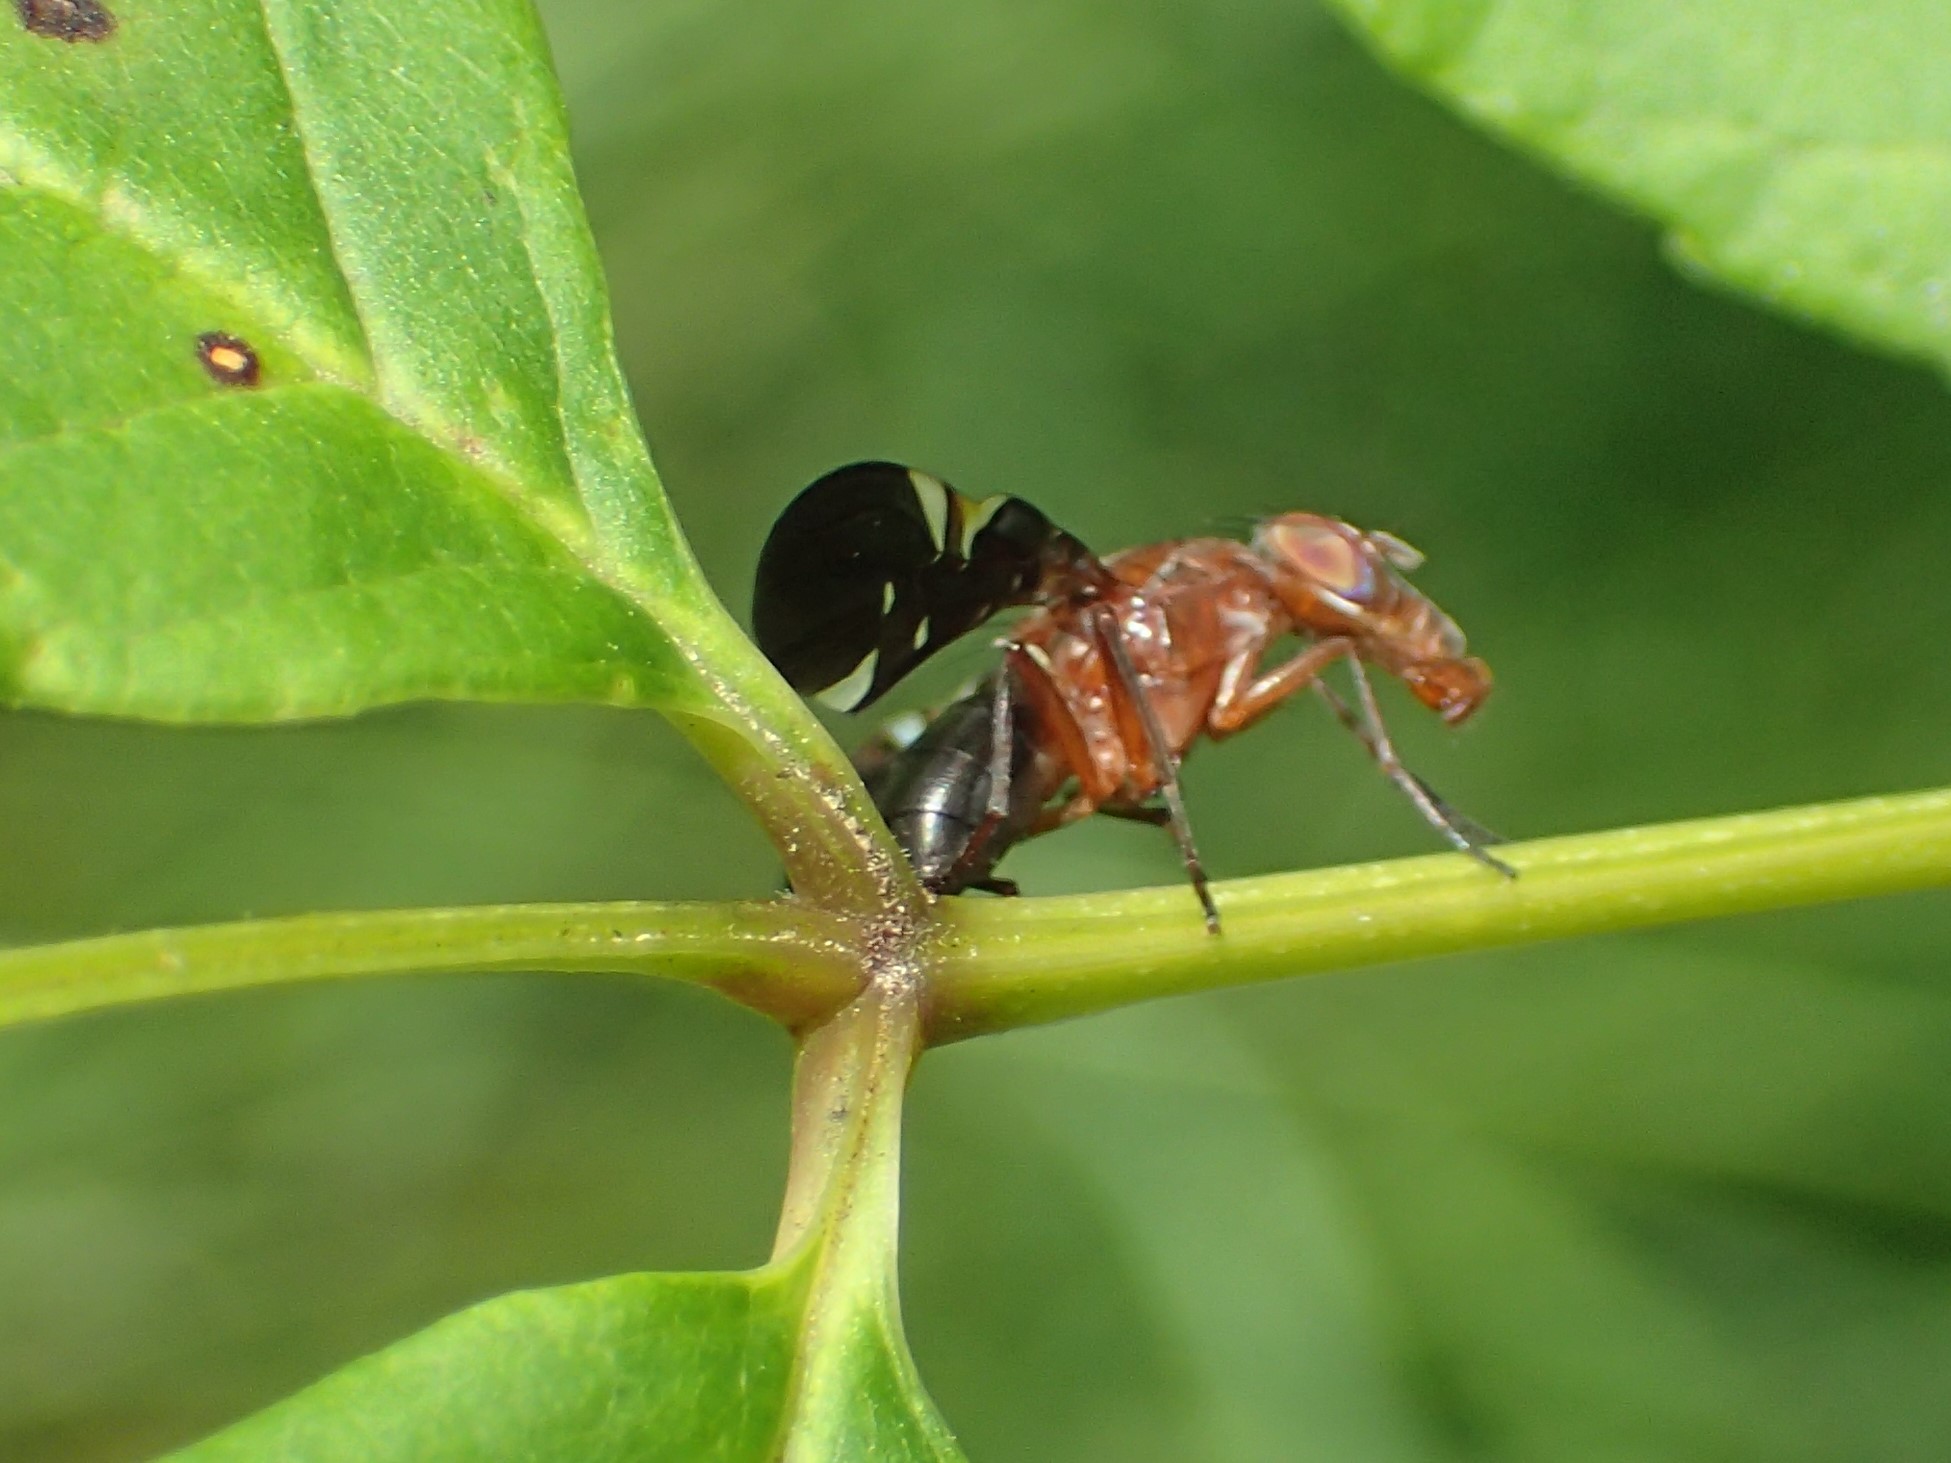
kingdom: Animalia
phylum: Arthropoda
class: Insecta
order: Diptera
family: Ulidiidae
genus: Delphinia
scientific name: Delphinia picta
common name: Common picture-winged fly
